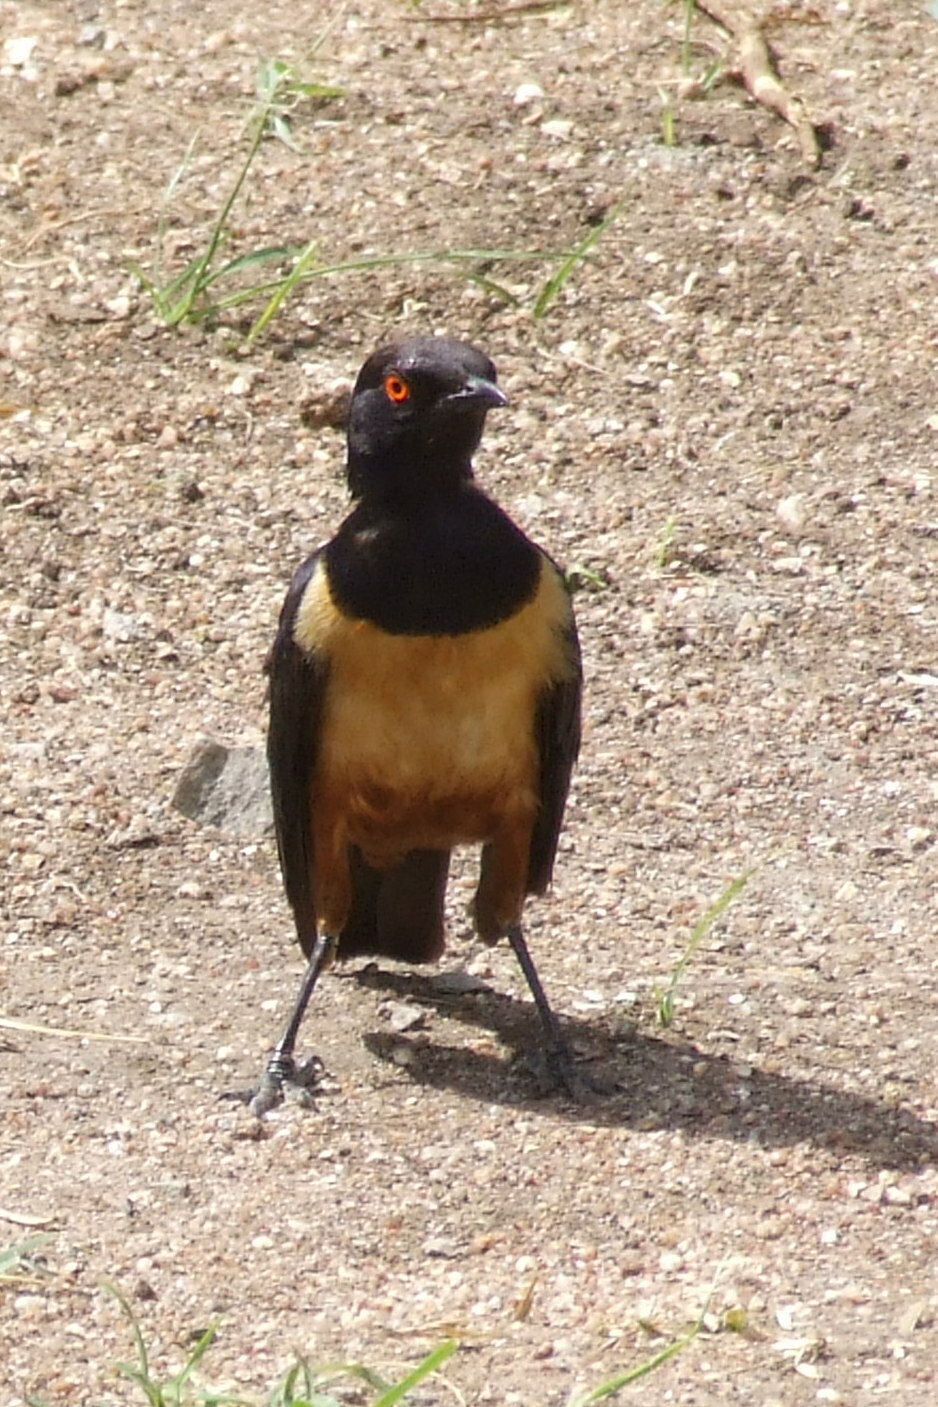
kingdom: Animalia
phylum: Chordata
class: Aves
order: Passeriformes
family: Sturnidae
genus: Lamprotornis
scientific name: Lamprotornis hildebrandti
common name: Hildebrandt's starling
